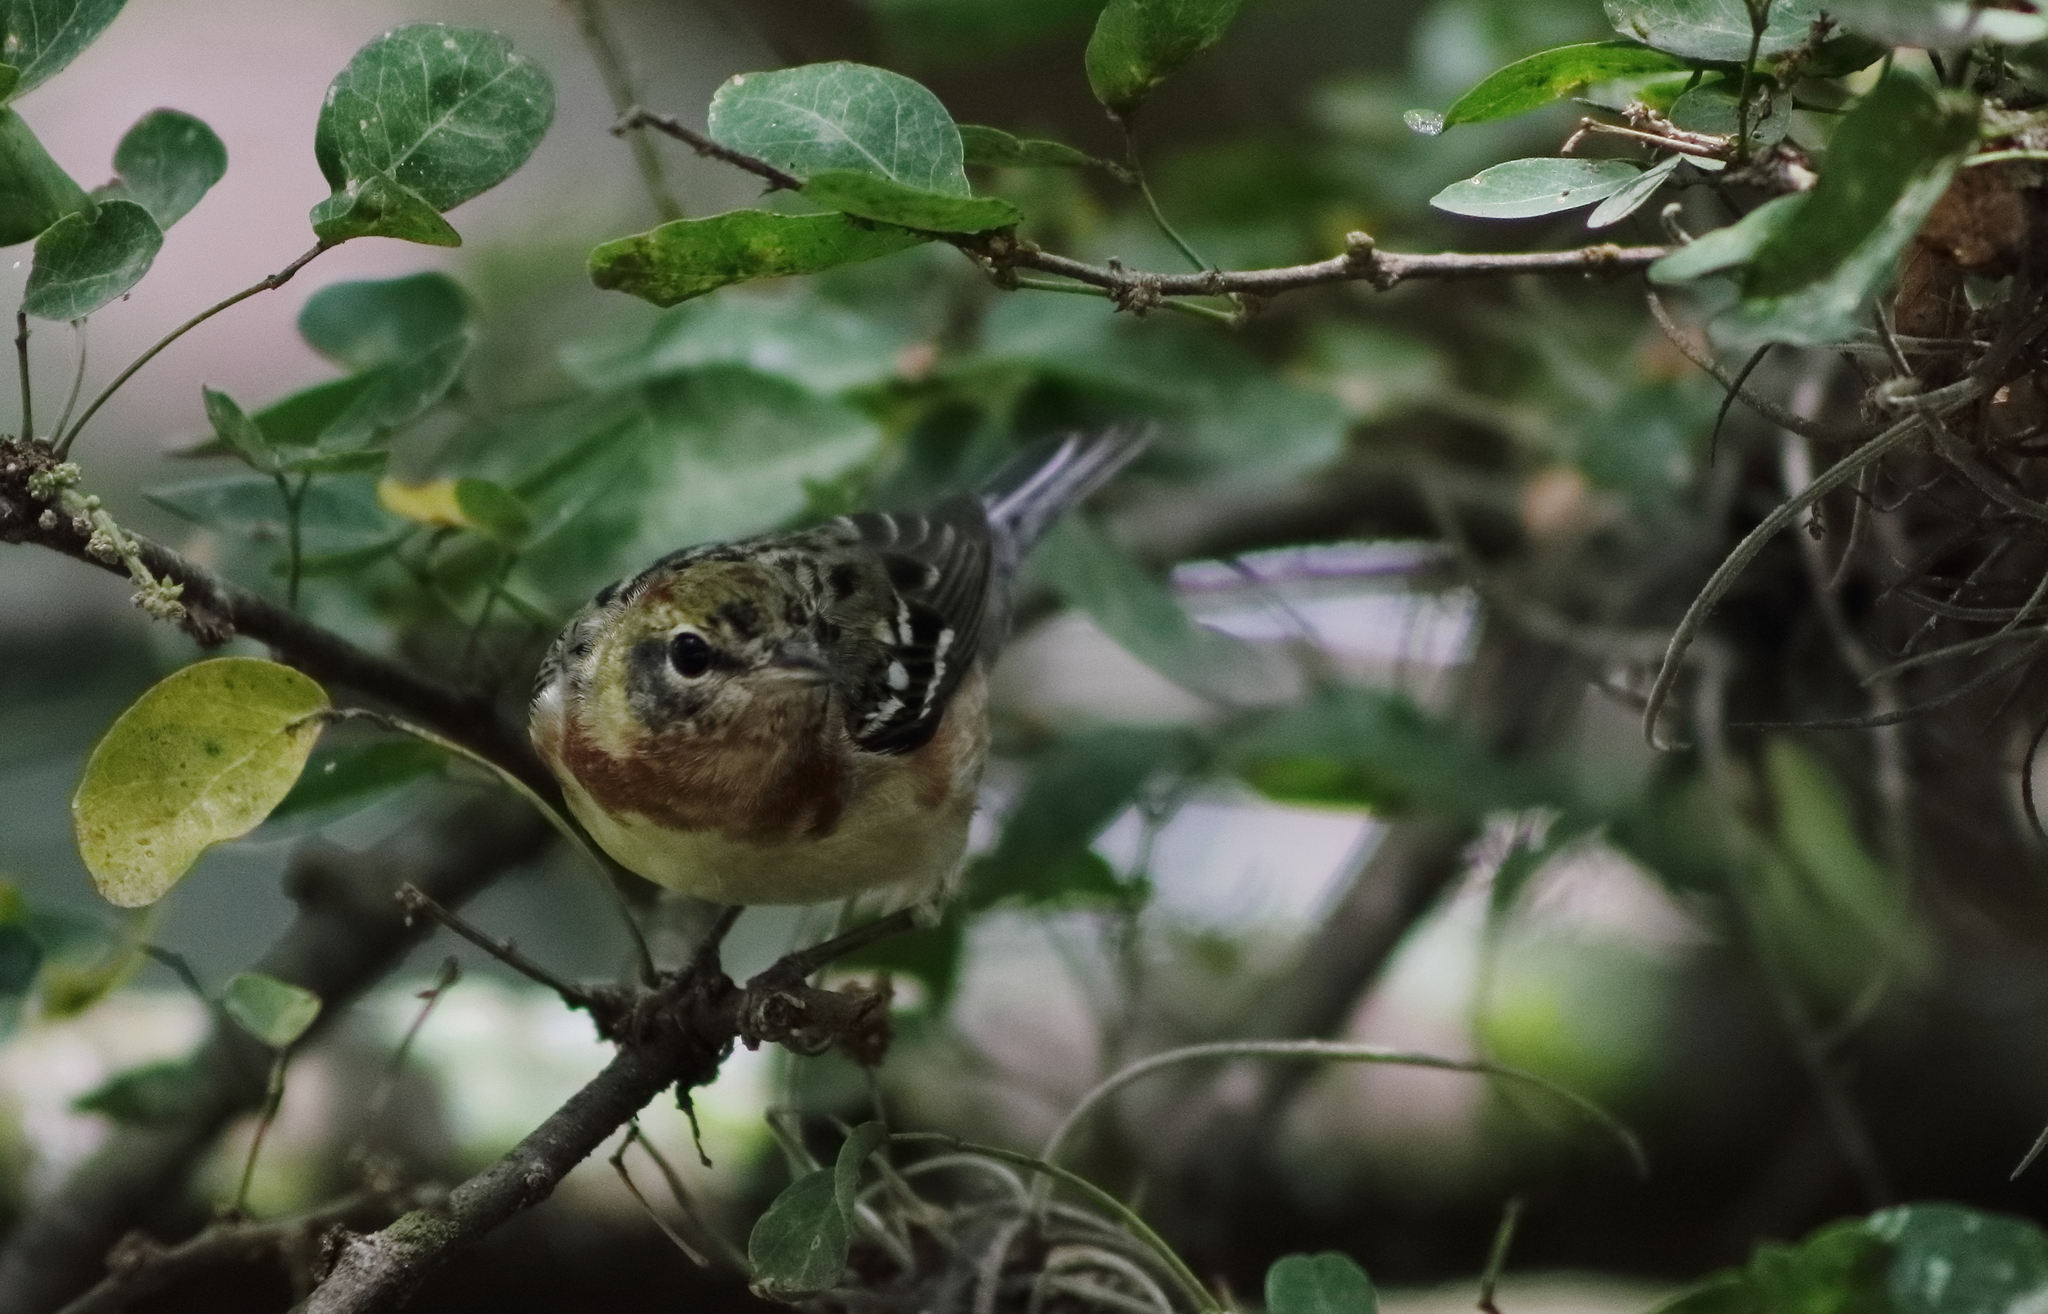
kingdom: Animalia
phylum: Chordata
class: Aves
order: Passeriformes
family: Parulidae
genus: Setophaga
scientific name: Setophaga castanea
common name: Bay-breasted warbler
